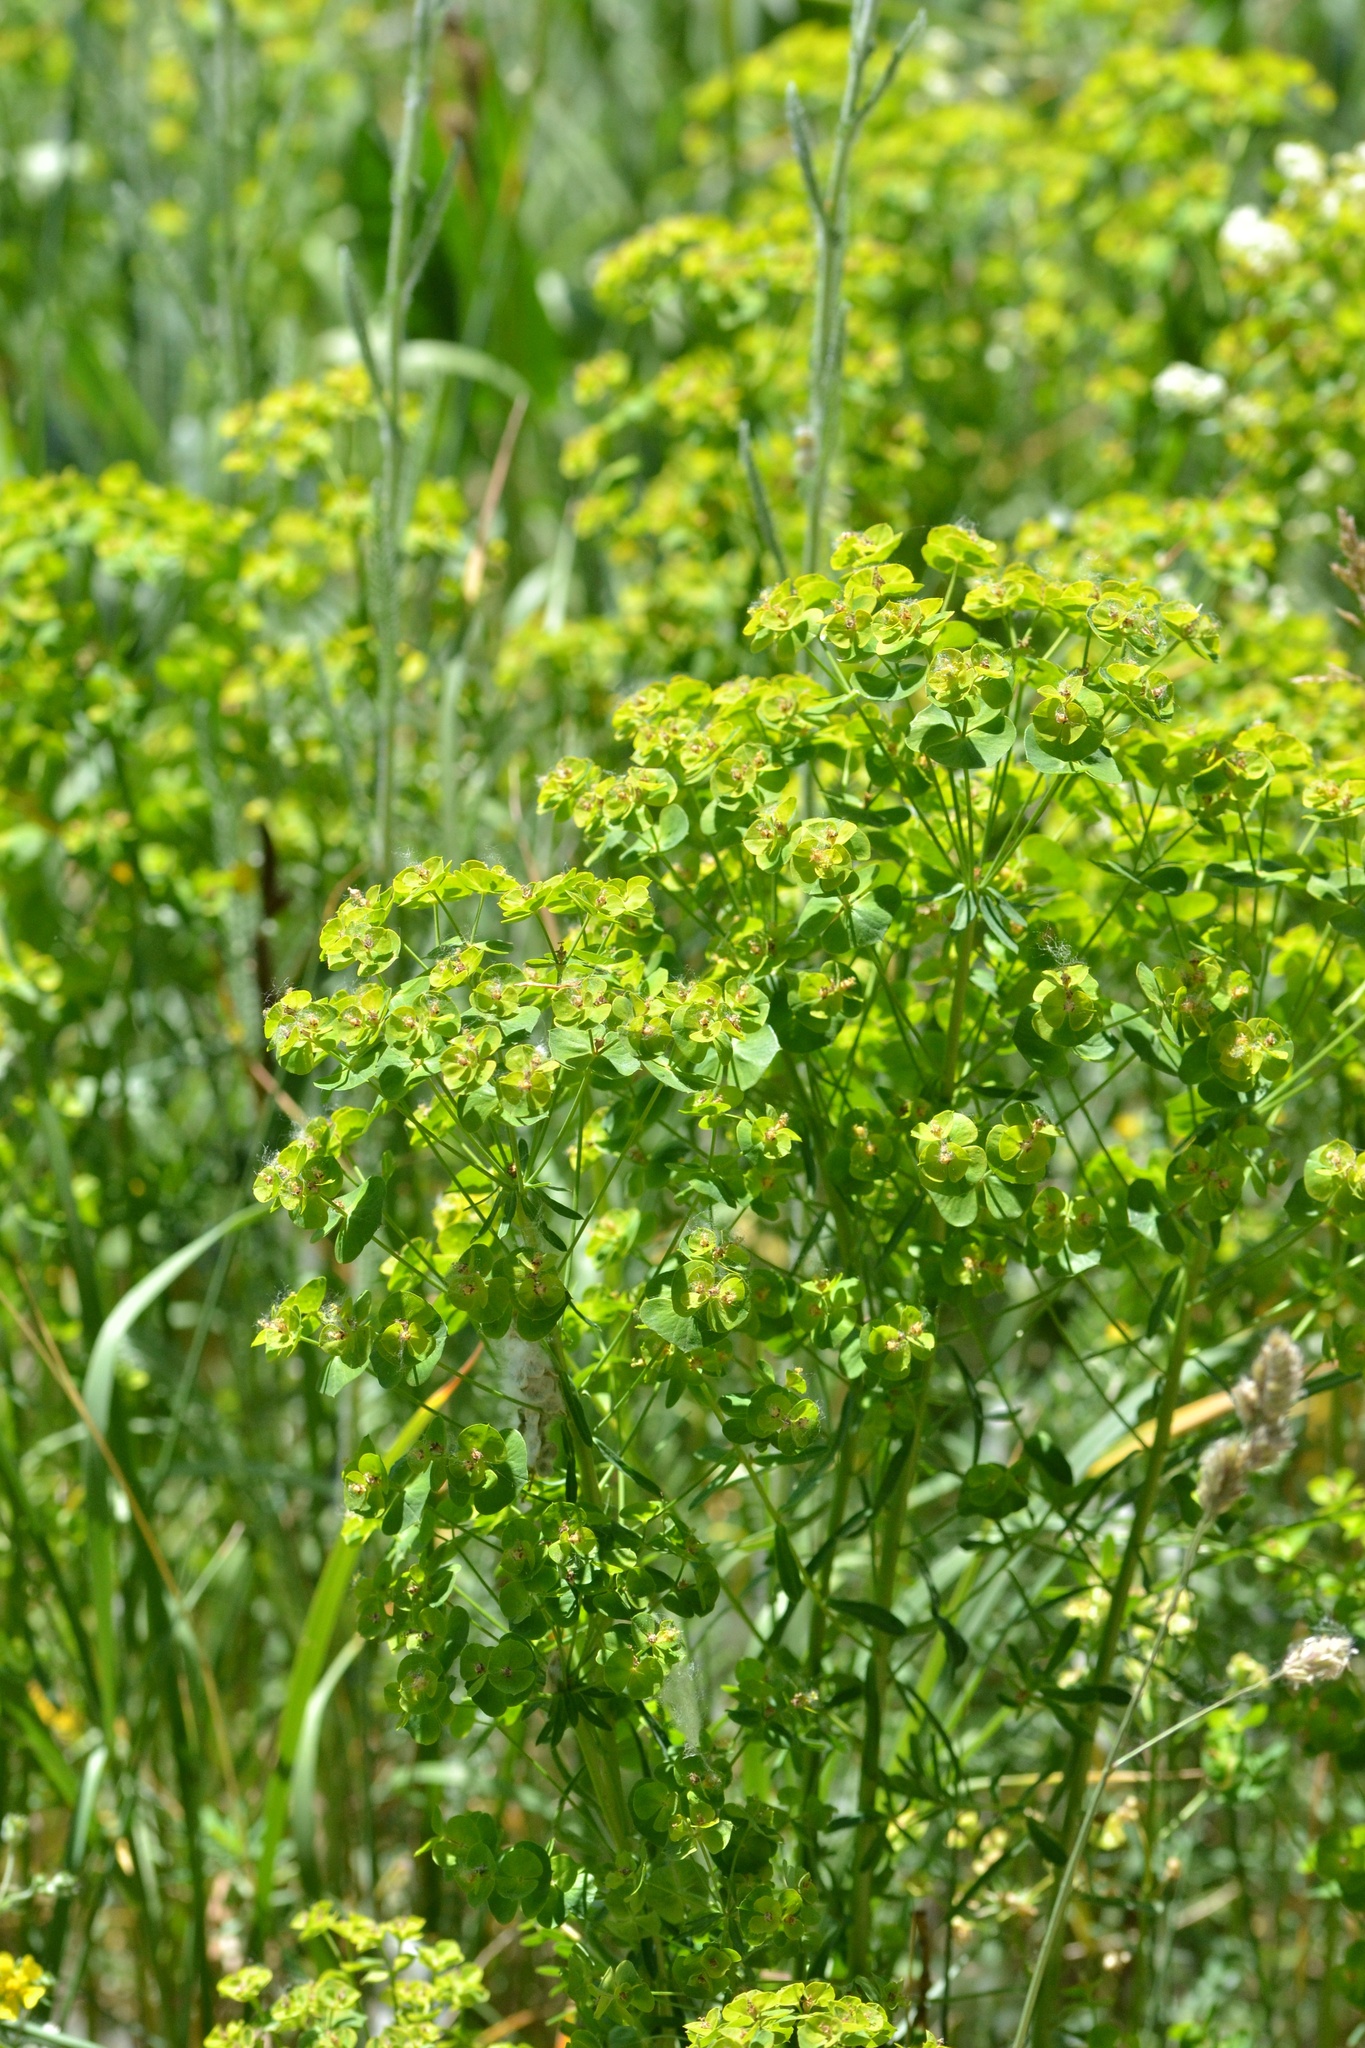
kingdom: Plantae
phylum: Tracheophyta
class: Magnoliopsida
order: Malpighiales
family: Euphorbiaceae
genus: Euphorbia
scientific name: Euphorbia esula
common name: Leafy spurge
